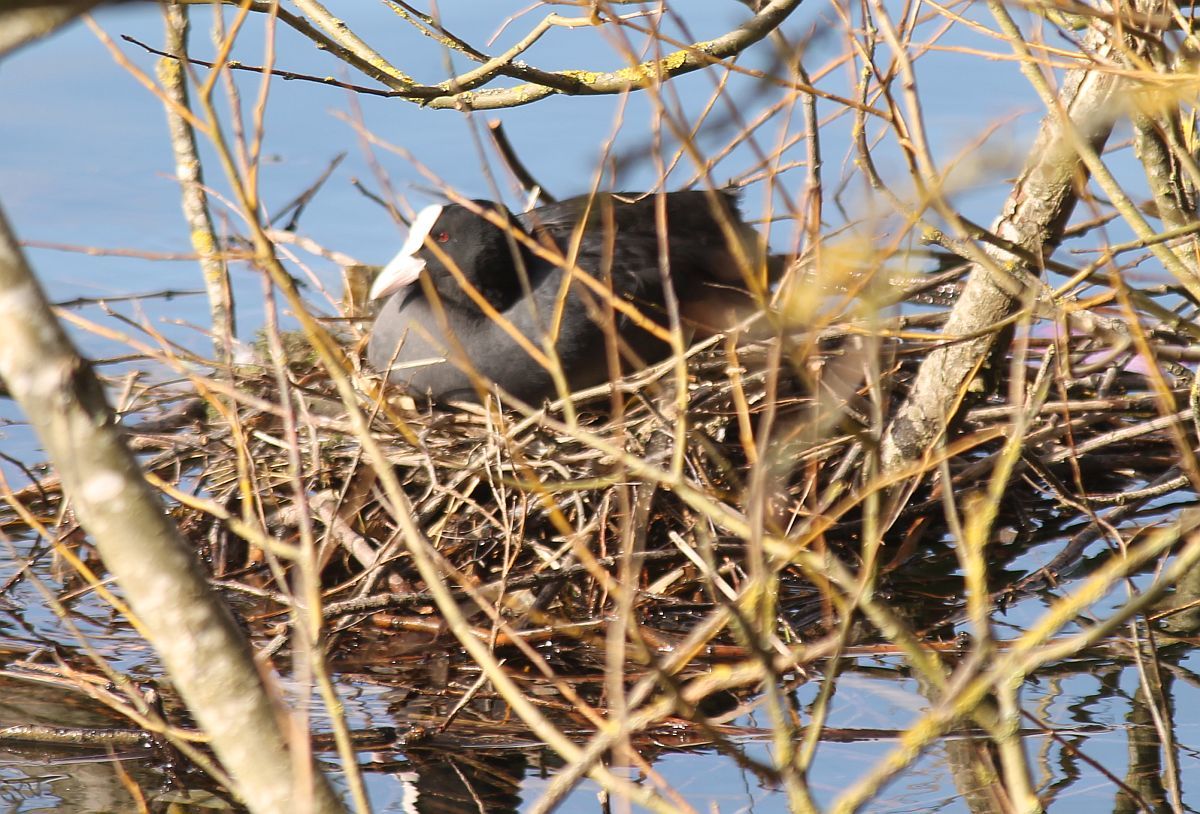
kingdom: Animalia
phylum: Chordata
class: Aves
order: Gruiformes
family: Rallidae
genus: Fulica
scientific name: Fulica atra
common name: Eurasian coot
